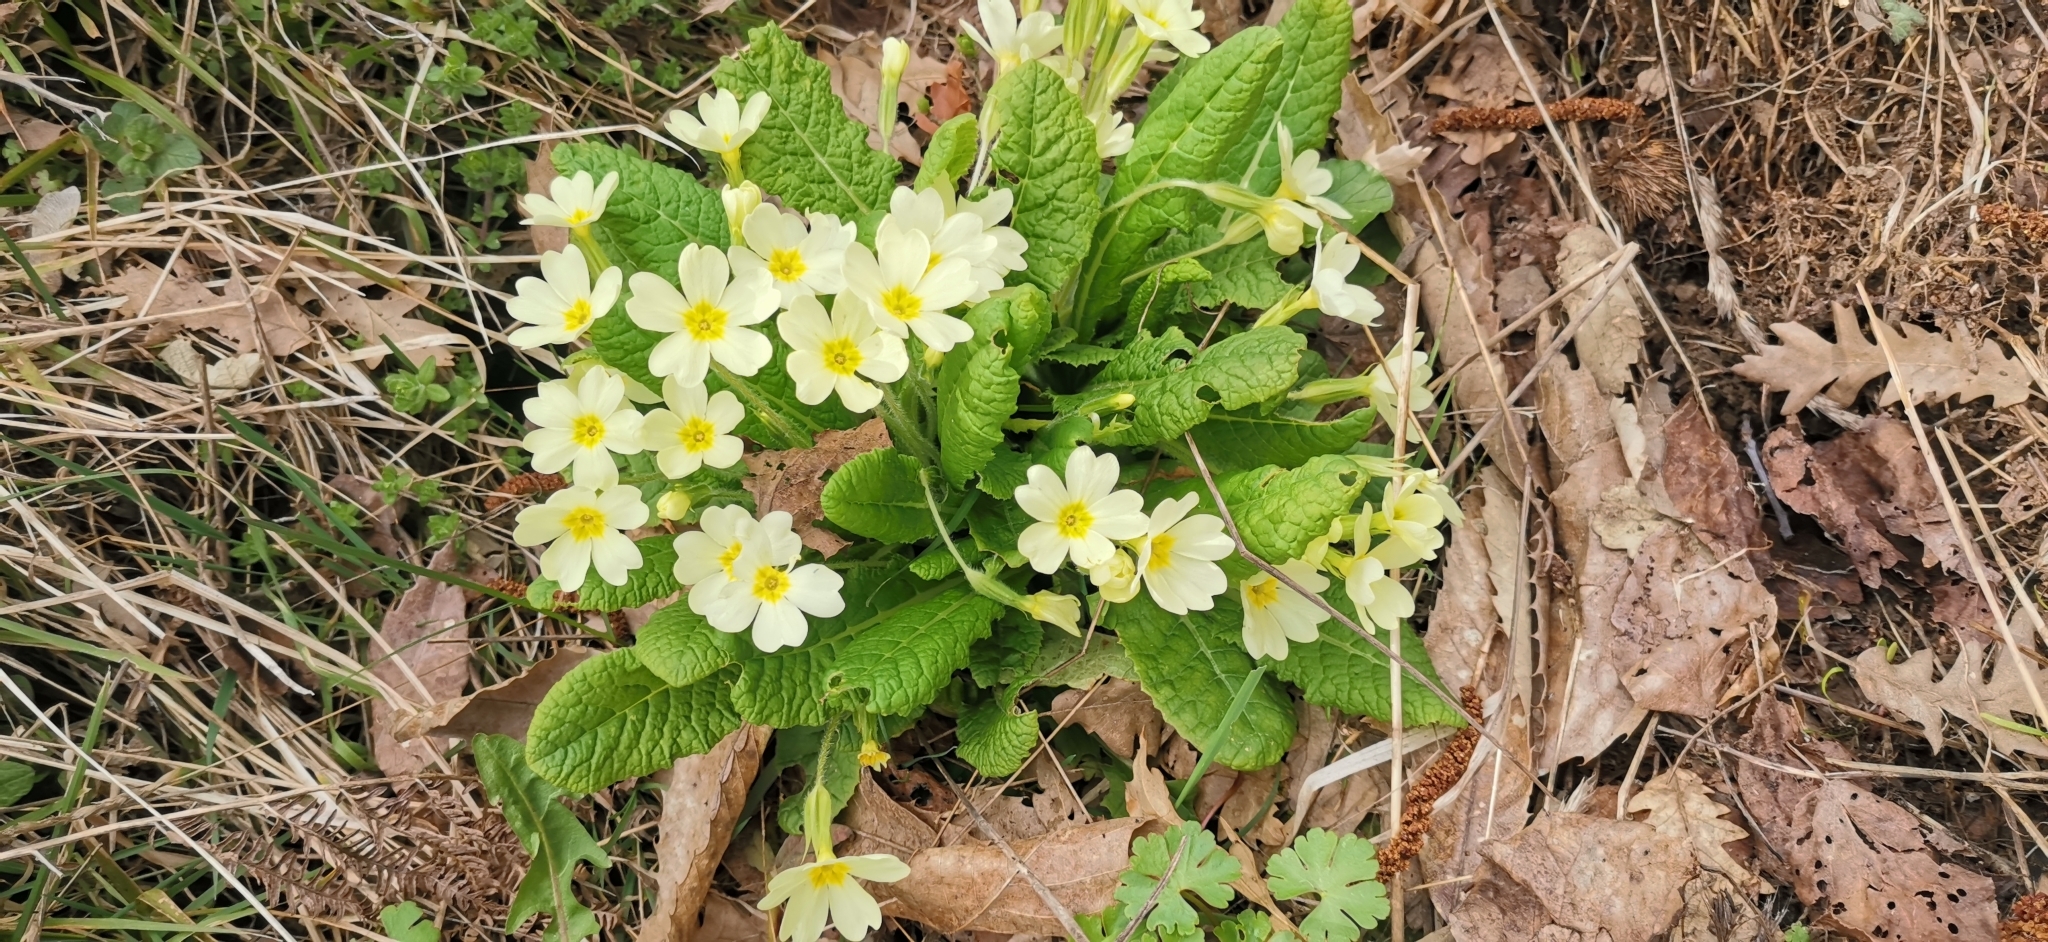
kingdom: Plantae
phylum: Tracheophyta
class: Magnoliopsida
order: Ericales
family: Primulaceae
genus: Primula
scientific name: Primula vulgaris
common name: Primrose
